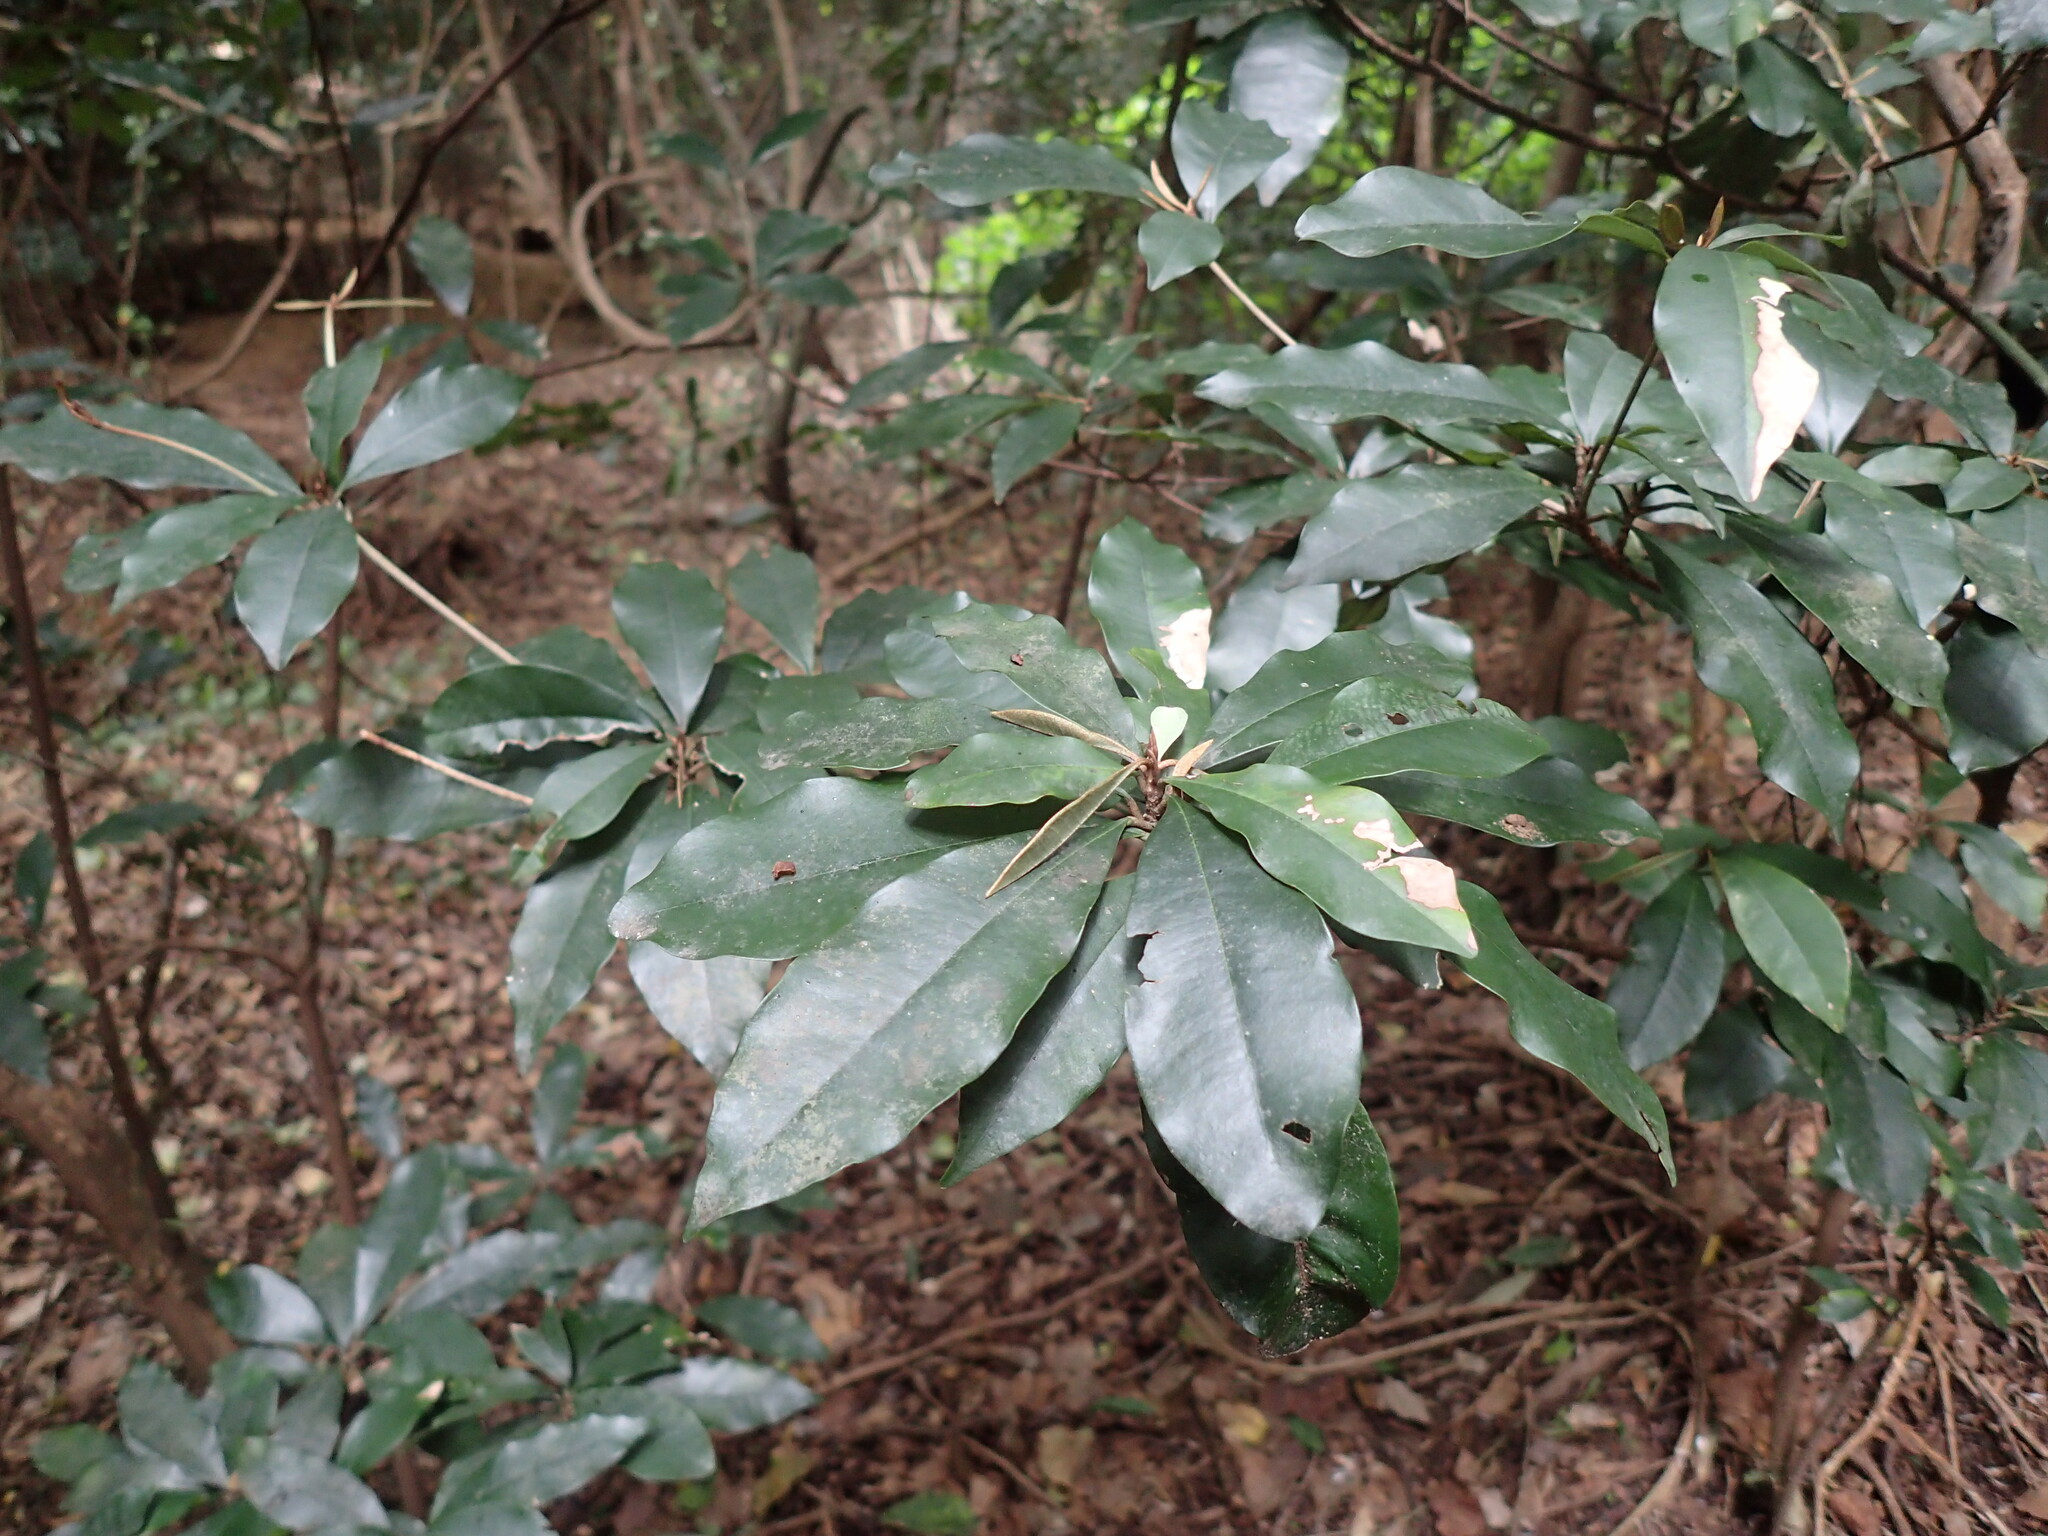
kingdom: Plantae
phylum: Tracheophyta
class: Magnoliopsida
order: Ericales
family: Sapotaceae
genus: Englerophytum
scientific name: Englerophytum natalense
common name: Silver-leaved milkplum
